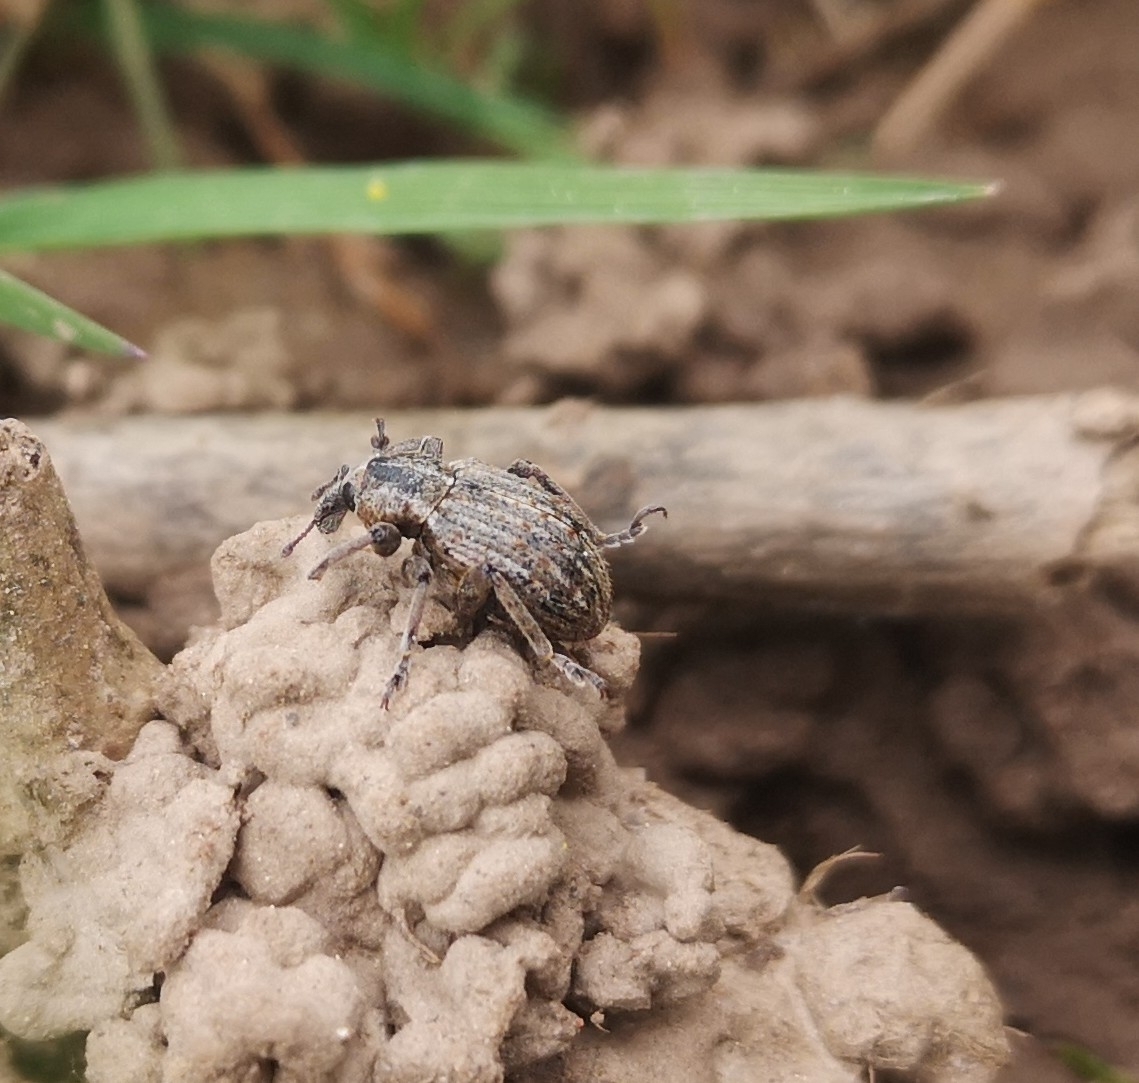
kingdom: Animalia
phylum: Arthropoda
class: Insecta
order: Coleoptera
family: Curculionidae
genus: Brachypera
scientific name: Brachypera zoilus
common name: Clover leaf weevil
